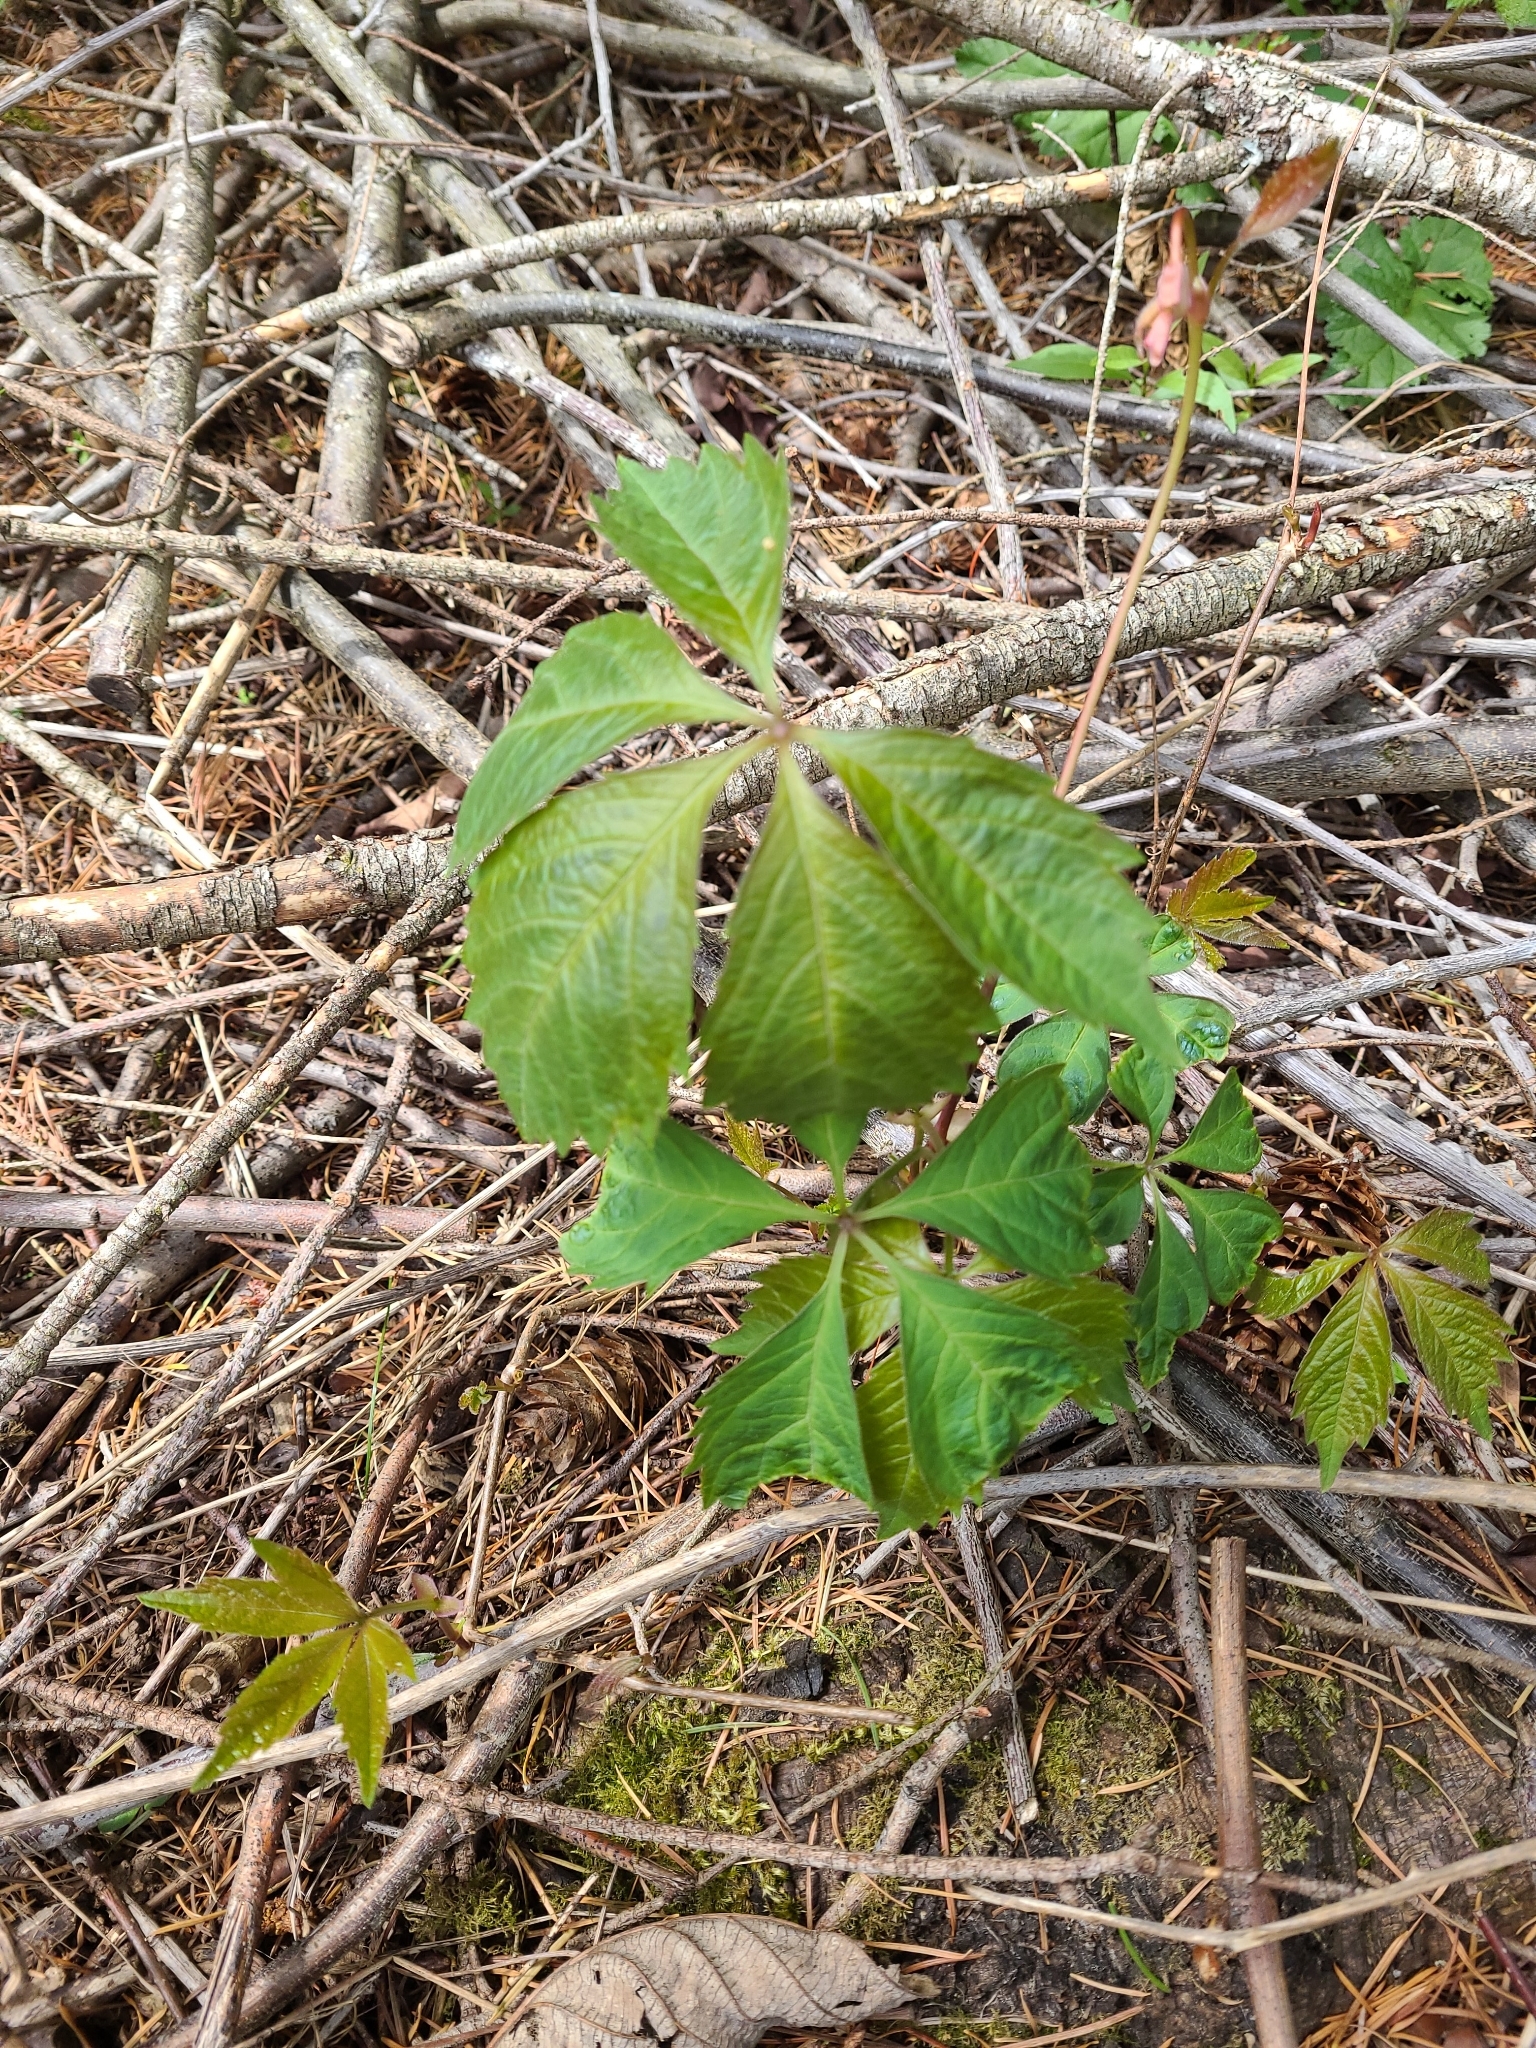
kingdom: Plantae
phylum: Tracheophyta
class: Magnoliopsida
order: Vitales
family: Vitaceae
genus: Parthenocissus
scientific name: Parthenocissus quinquefolia
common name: Virginia-creeper
